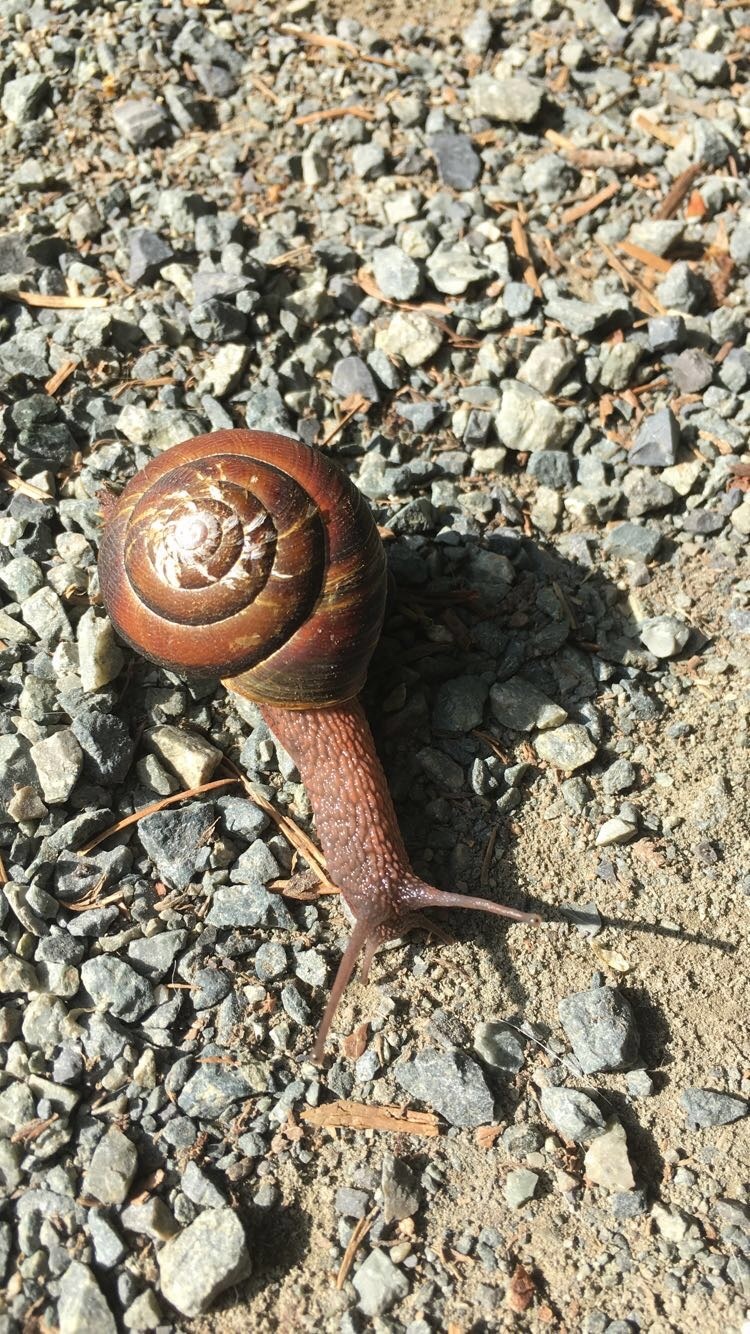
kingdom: Animalia
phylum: Mollusca
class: Gastropoda
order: Stylommatophora
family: Xanthonychidae
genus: Monadenia
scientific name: Monadenia fidelis
